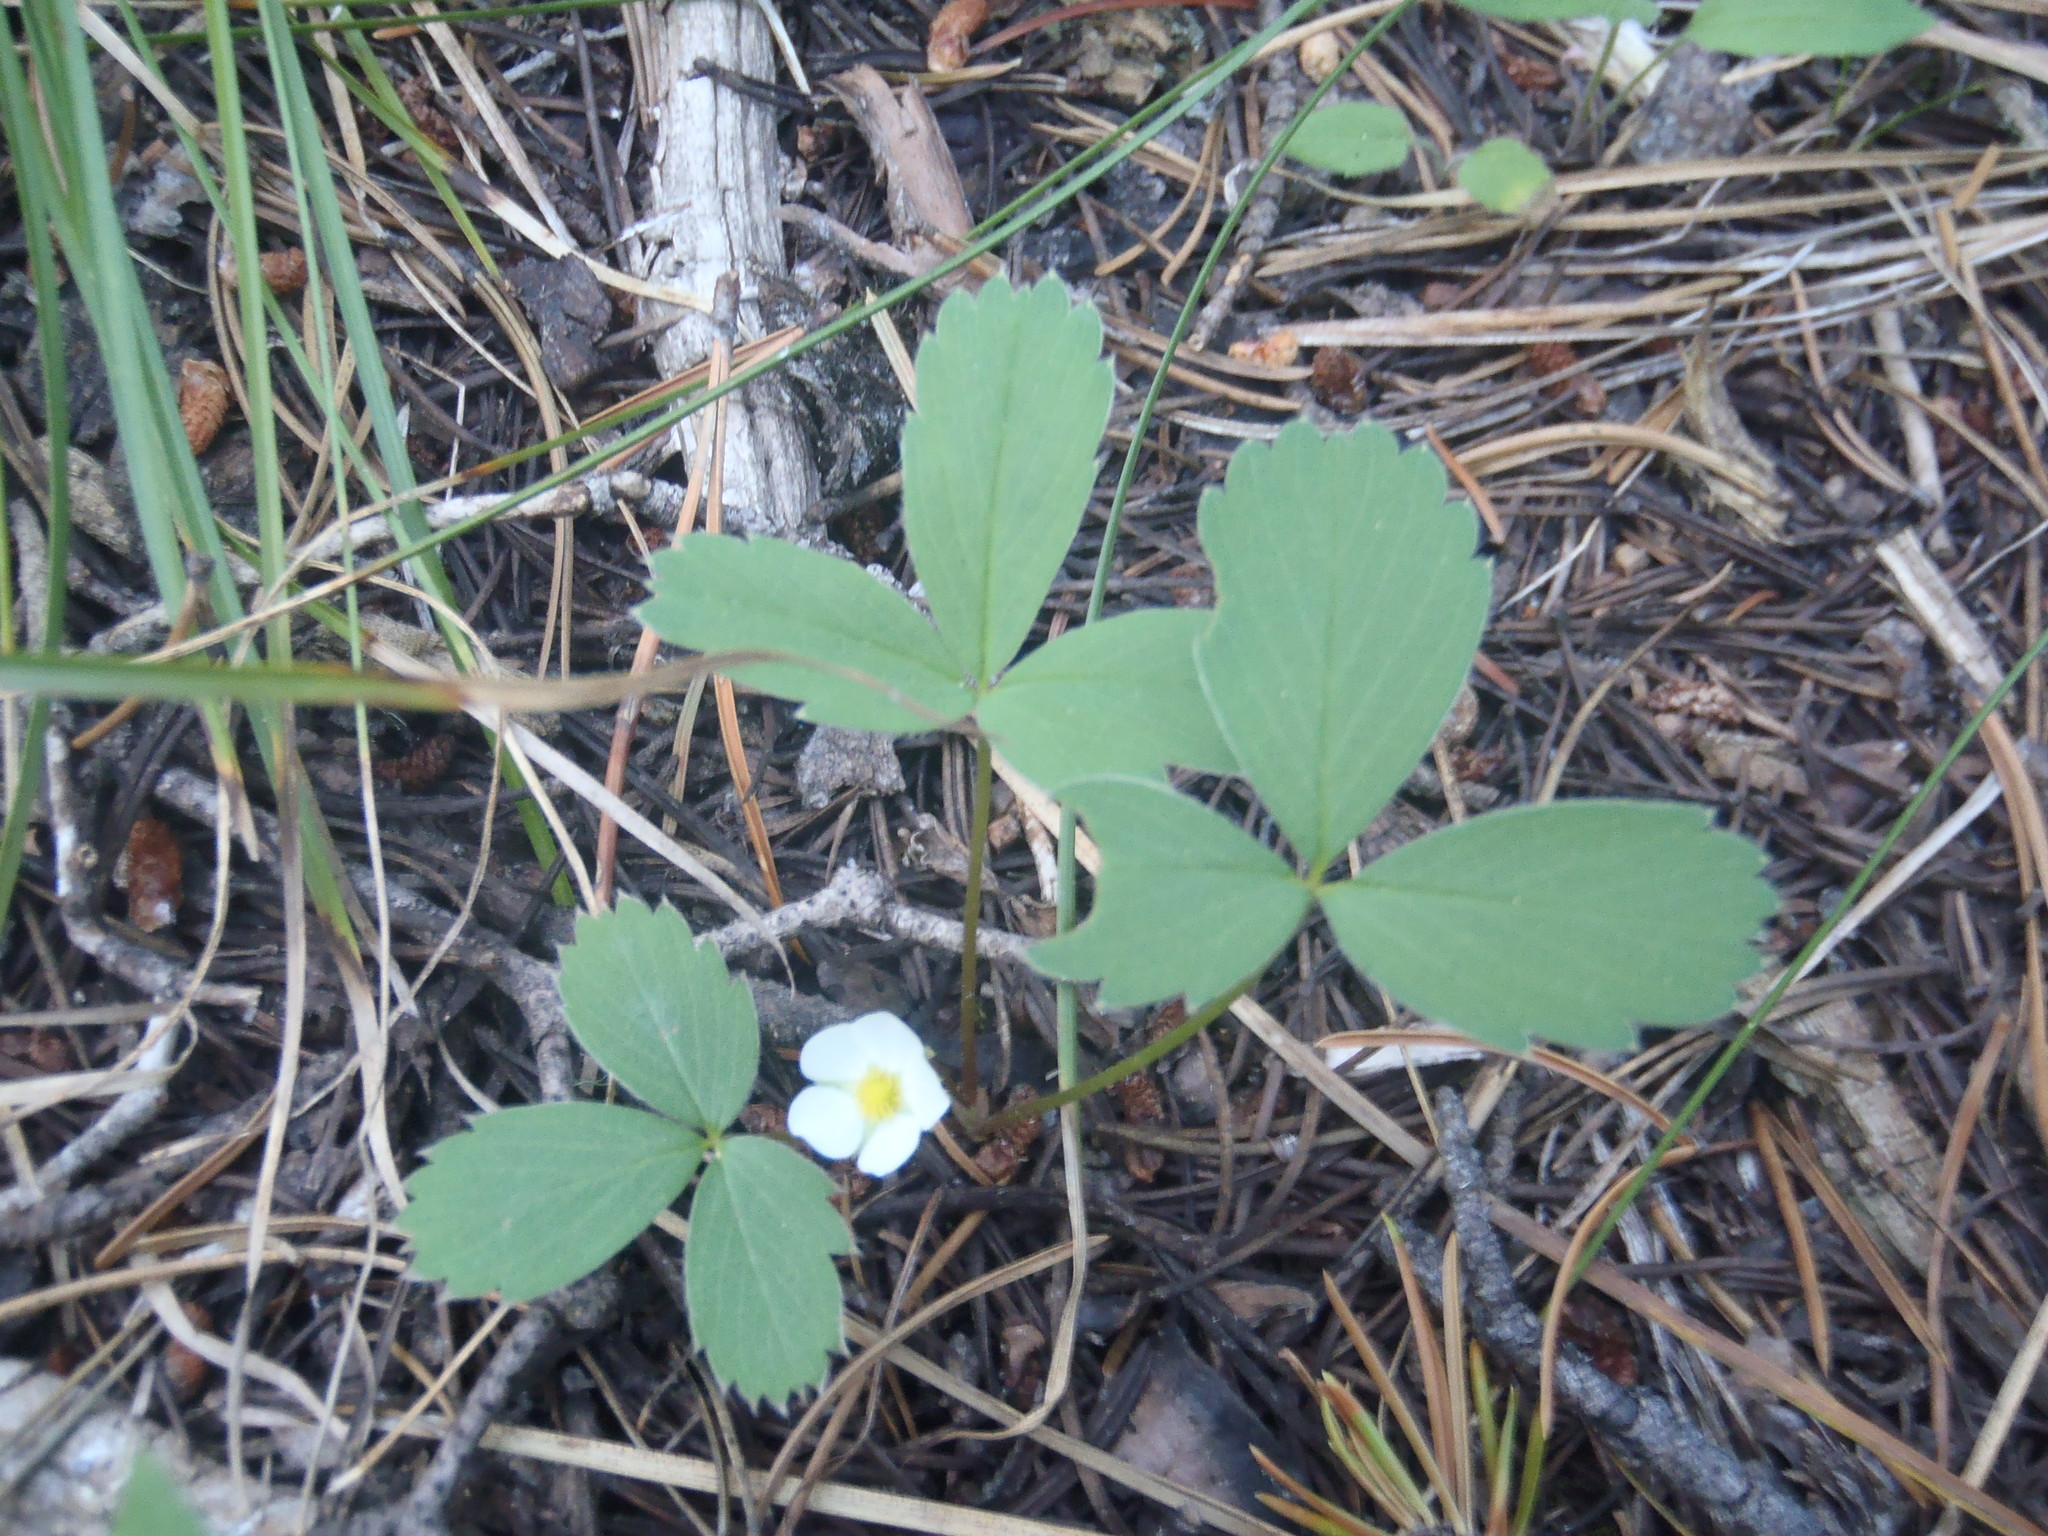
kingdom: Plantae
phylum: Tracheophyta
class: Magnoliopsida
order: Rosales
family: Rosaceae
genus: Fragaria
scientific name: Fragaria virginiana
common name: Thickleaved wild strawberry
